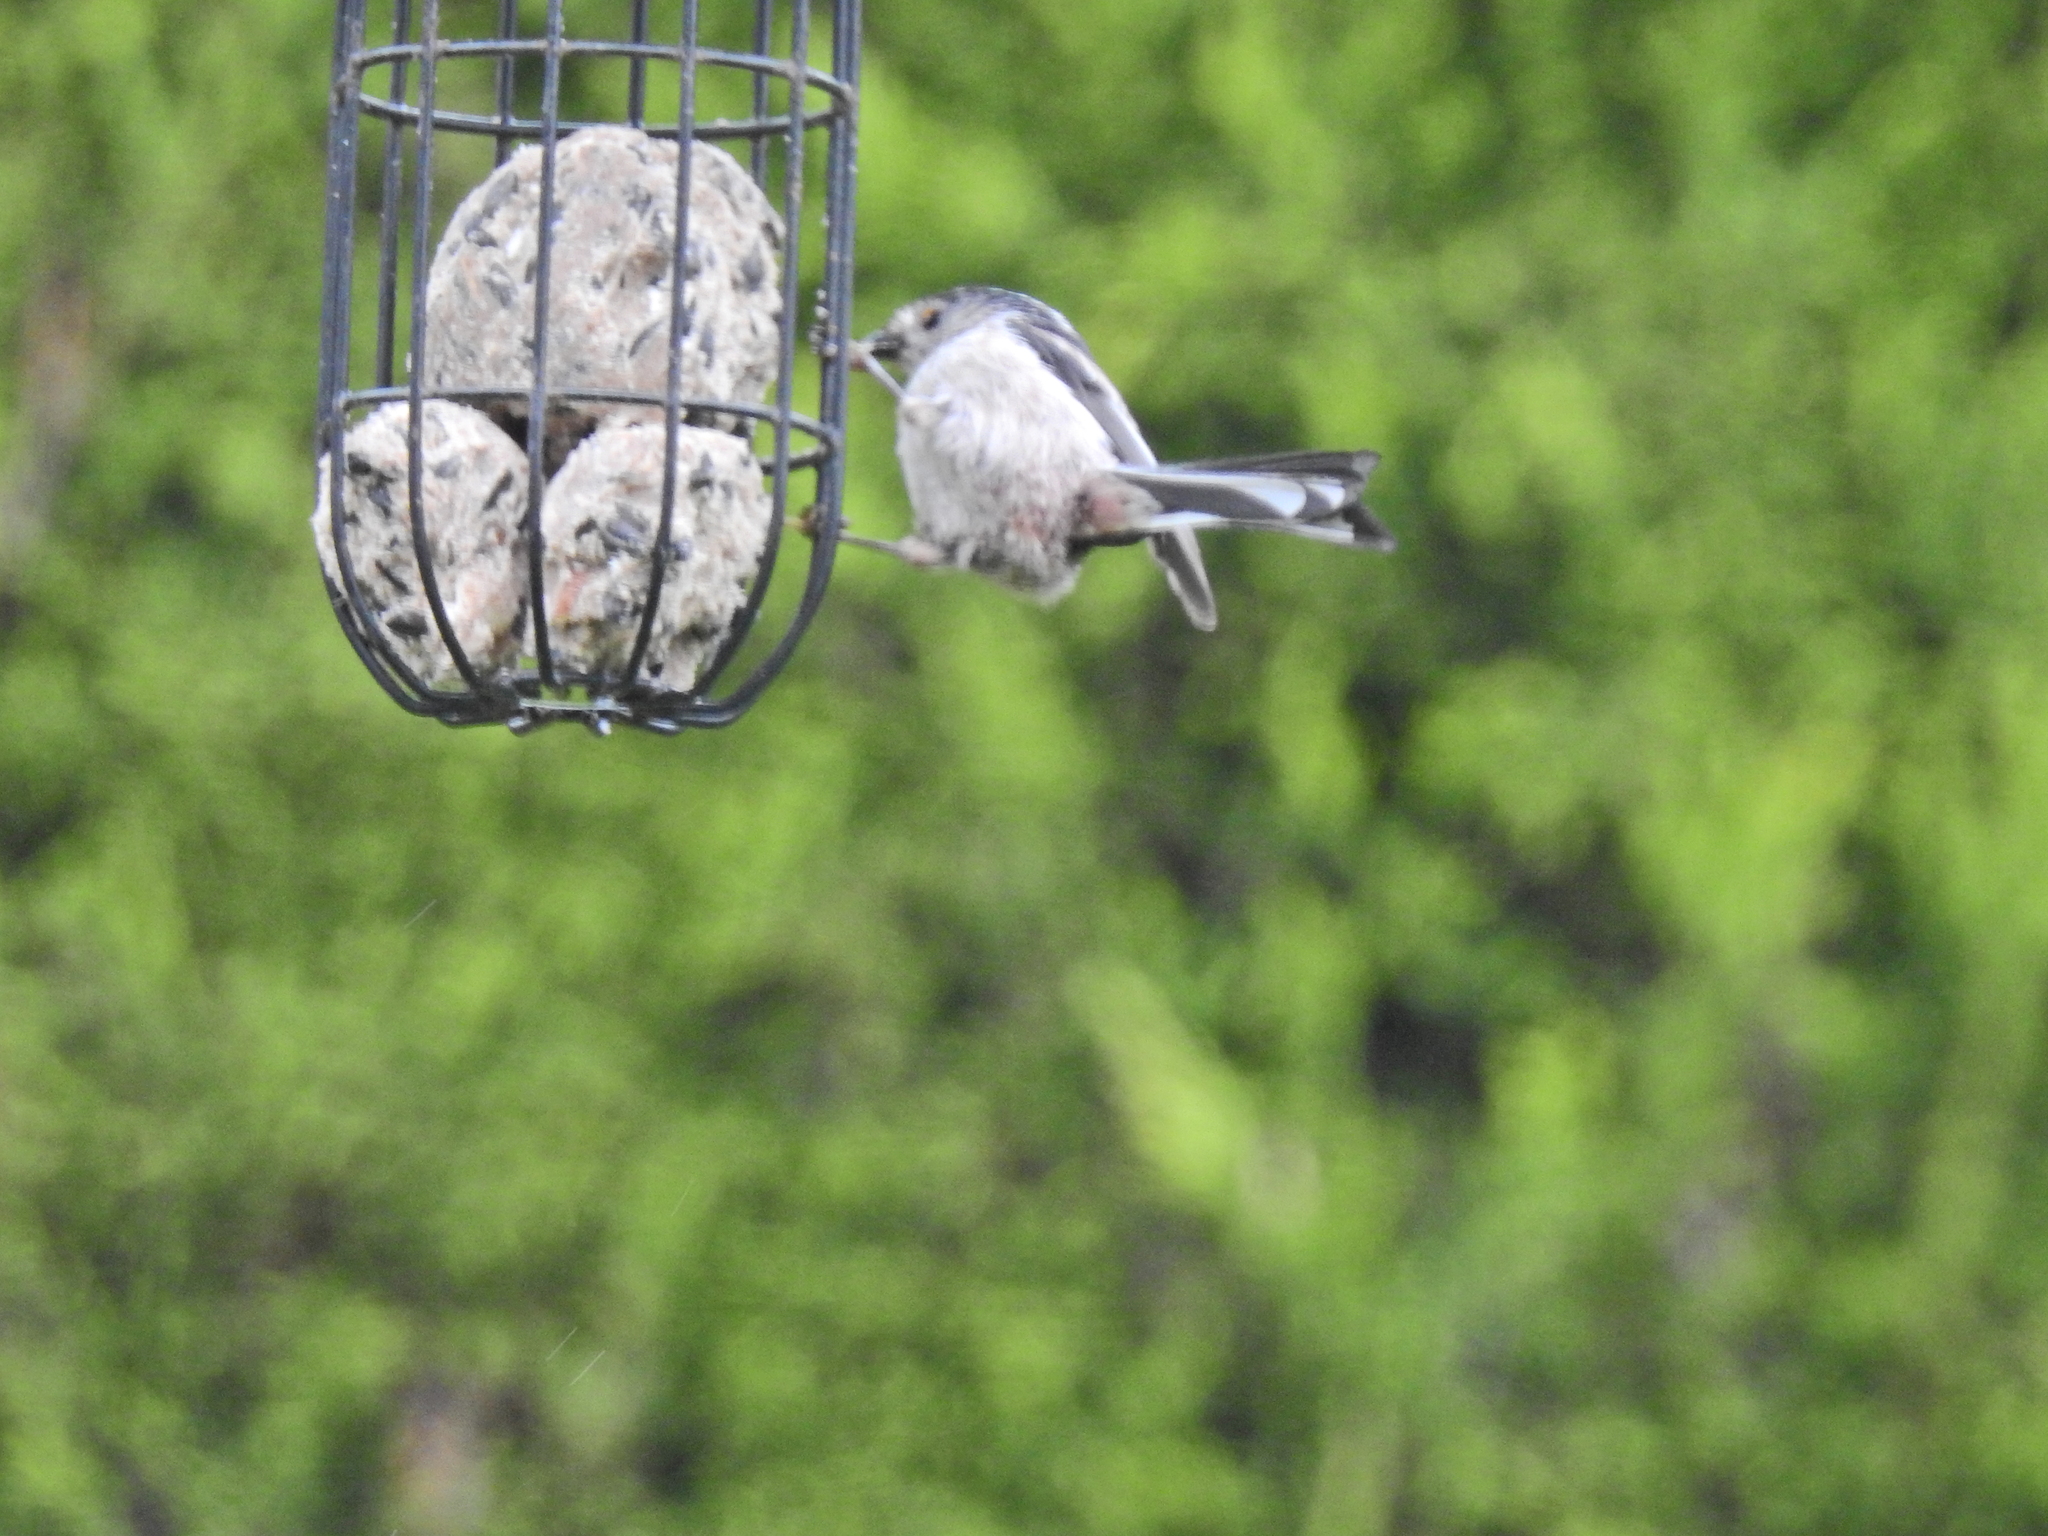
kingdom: Animalia
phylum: Chordata
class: Aves
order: Passeriformes
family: Aegithalidae
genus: Aegithalos
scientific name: Aegithalos caudatus
